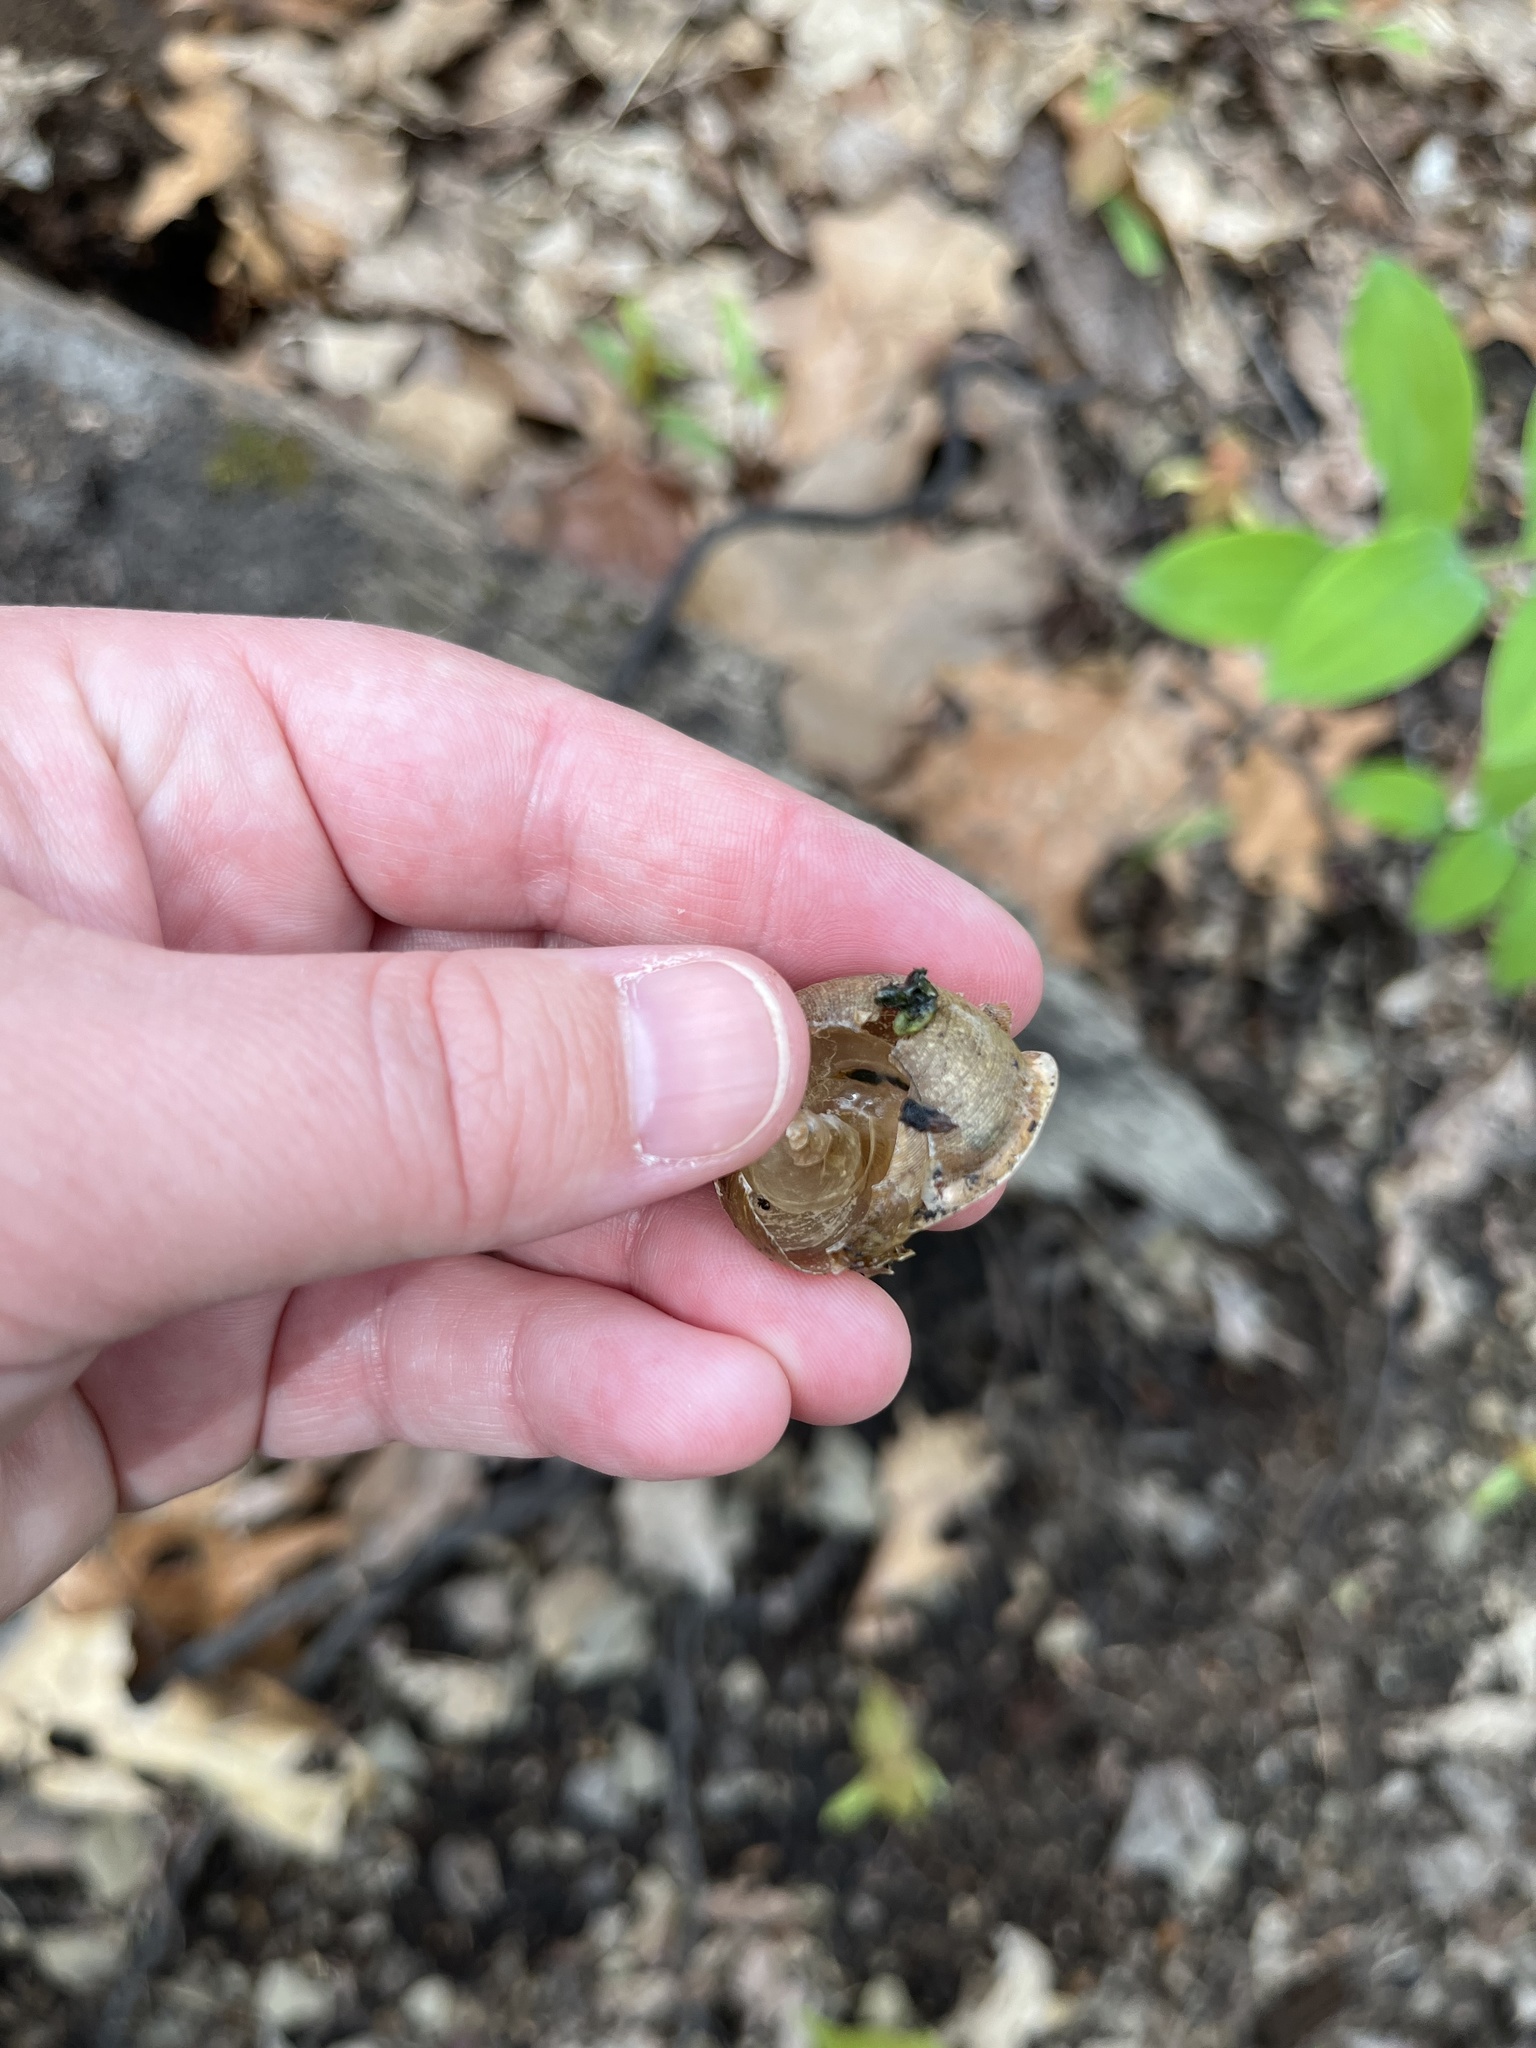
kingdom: Animalia
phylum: Mollusca
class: Gastropoda
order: Stylommatophora
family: Polygyridae
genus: Neohelix
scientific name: Neohelix albolabris
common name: Eastern whitelip
